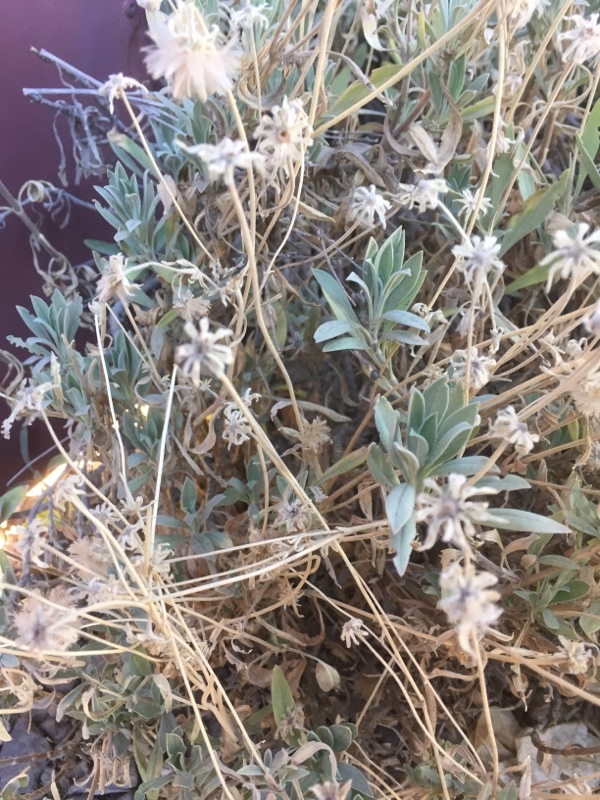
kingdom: Plantae
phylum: Tracheophyta
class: Magnoliopsida
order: Dipsacales
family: Caprifoliaceae
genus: Pterocephalus
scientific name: Pterocephalus lasiospermus
